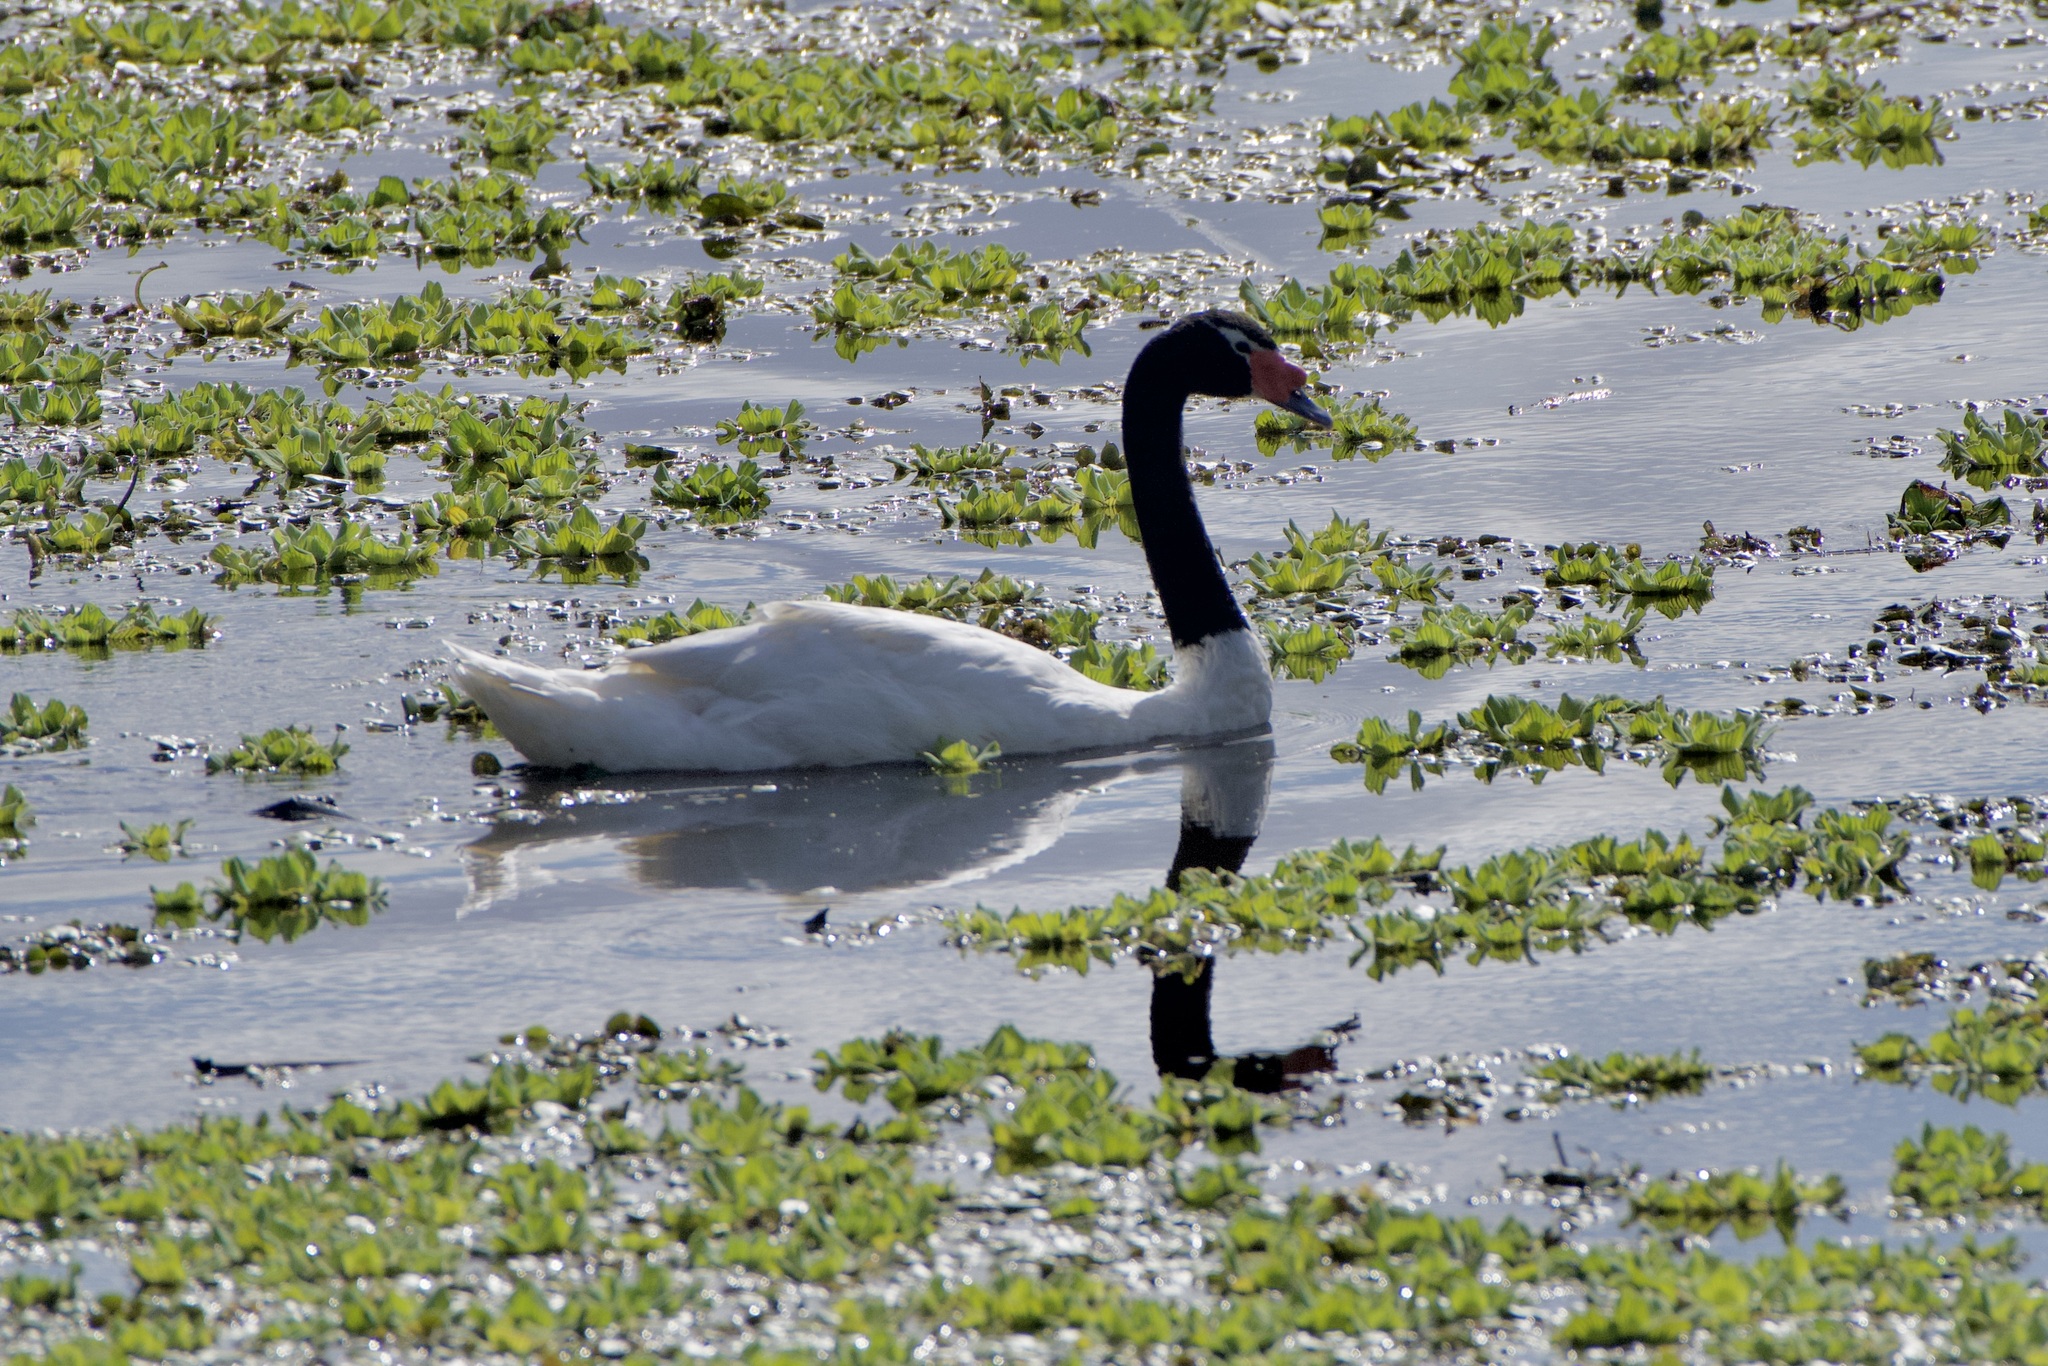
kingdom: Animalia
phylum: Chordata
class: Aves
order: Anseriformes
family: Anatidae
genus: Cygnus
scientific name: Cygnus melancoryphus
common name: Black-necked swan
